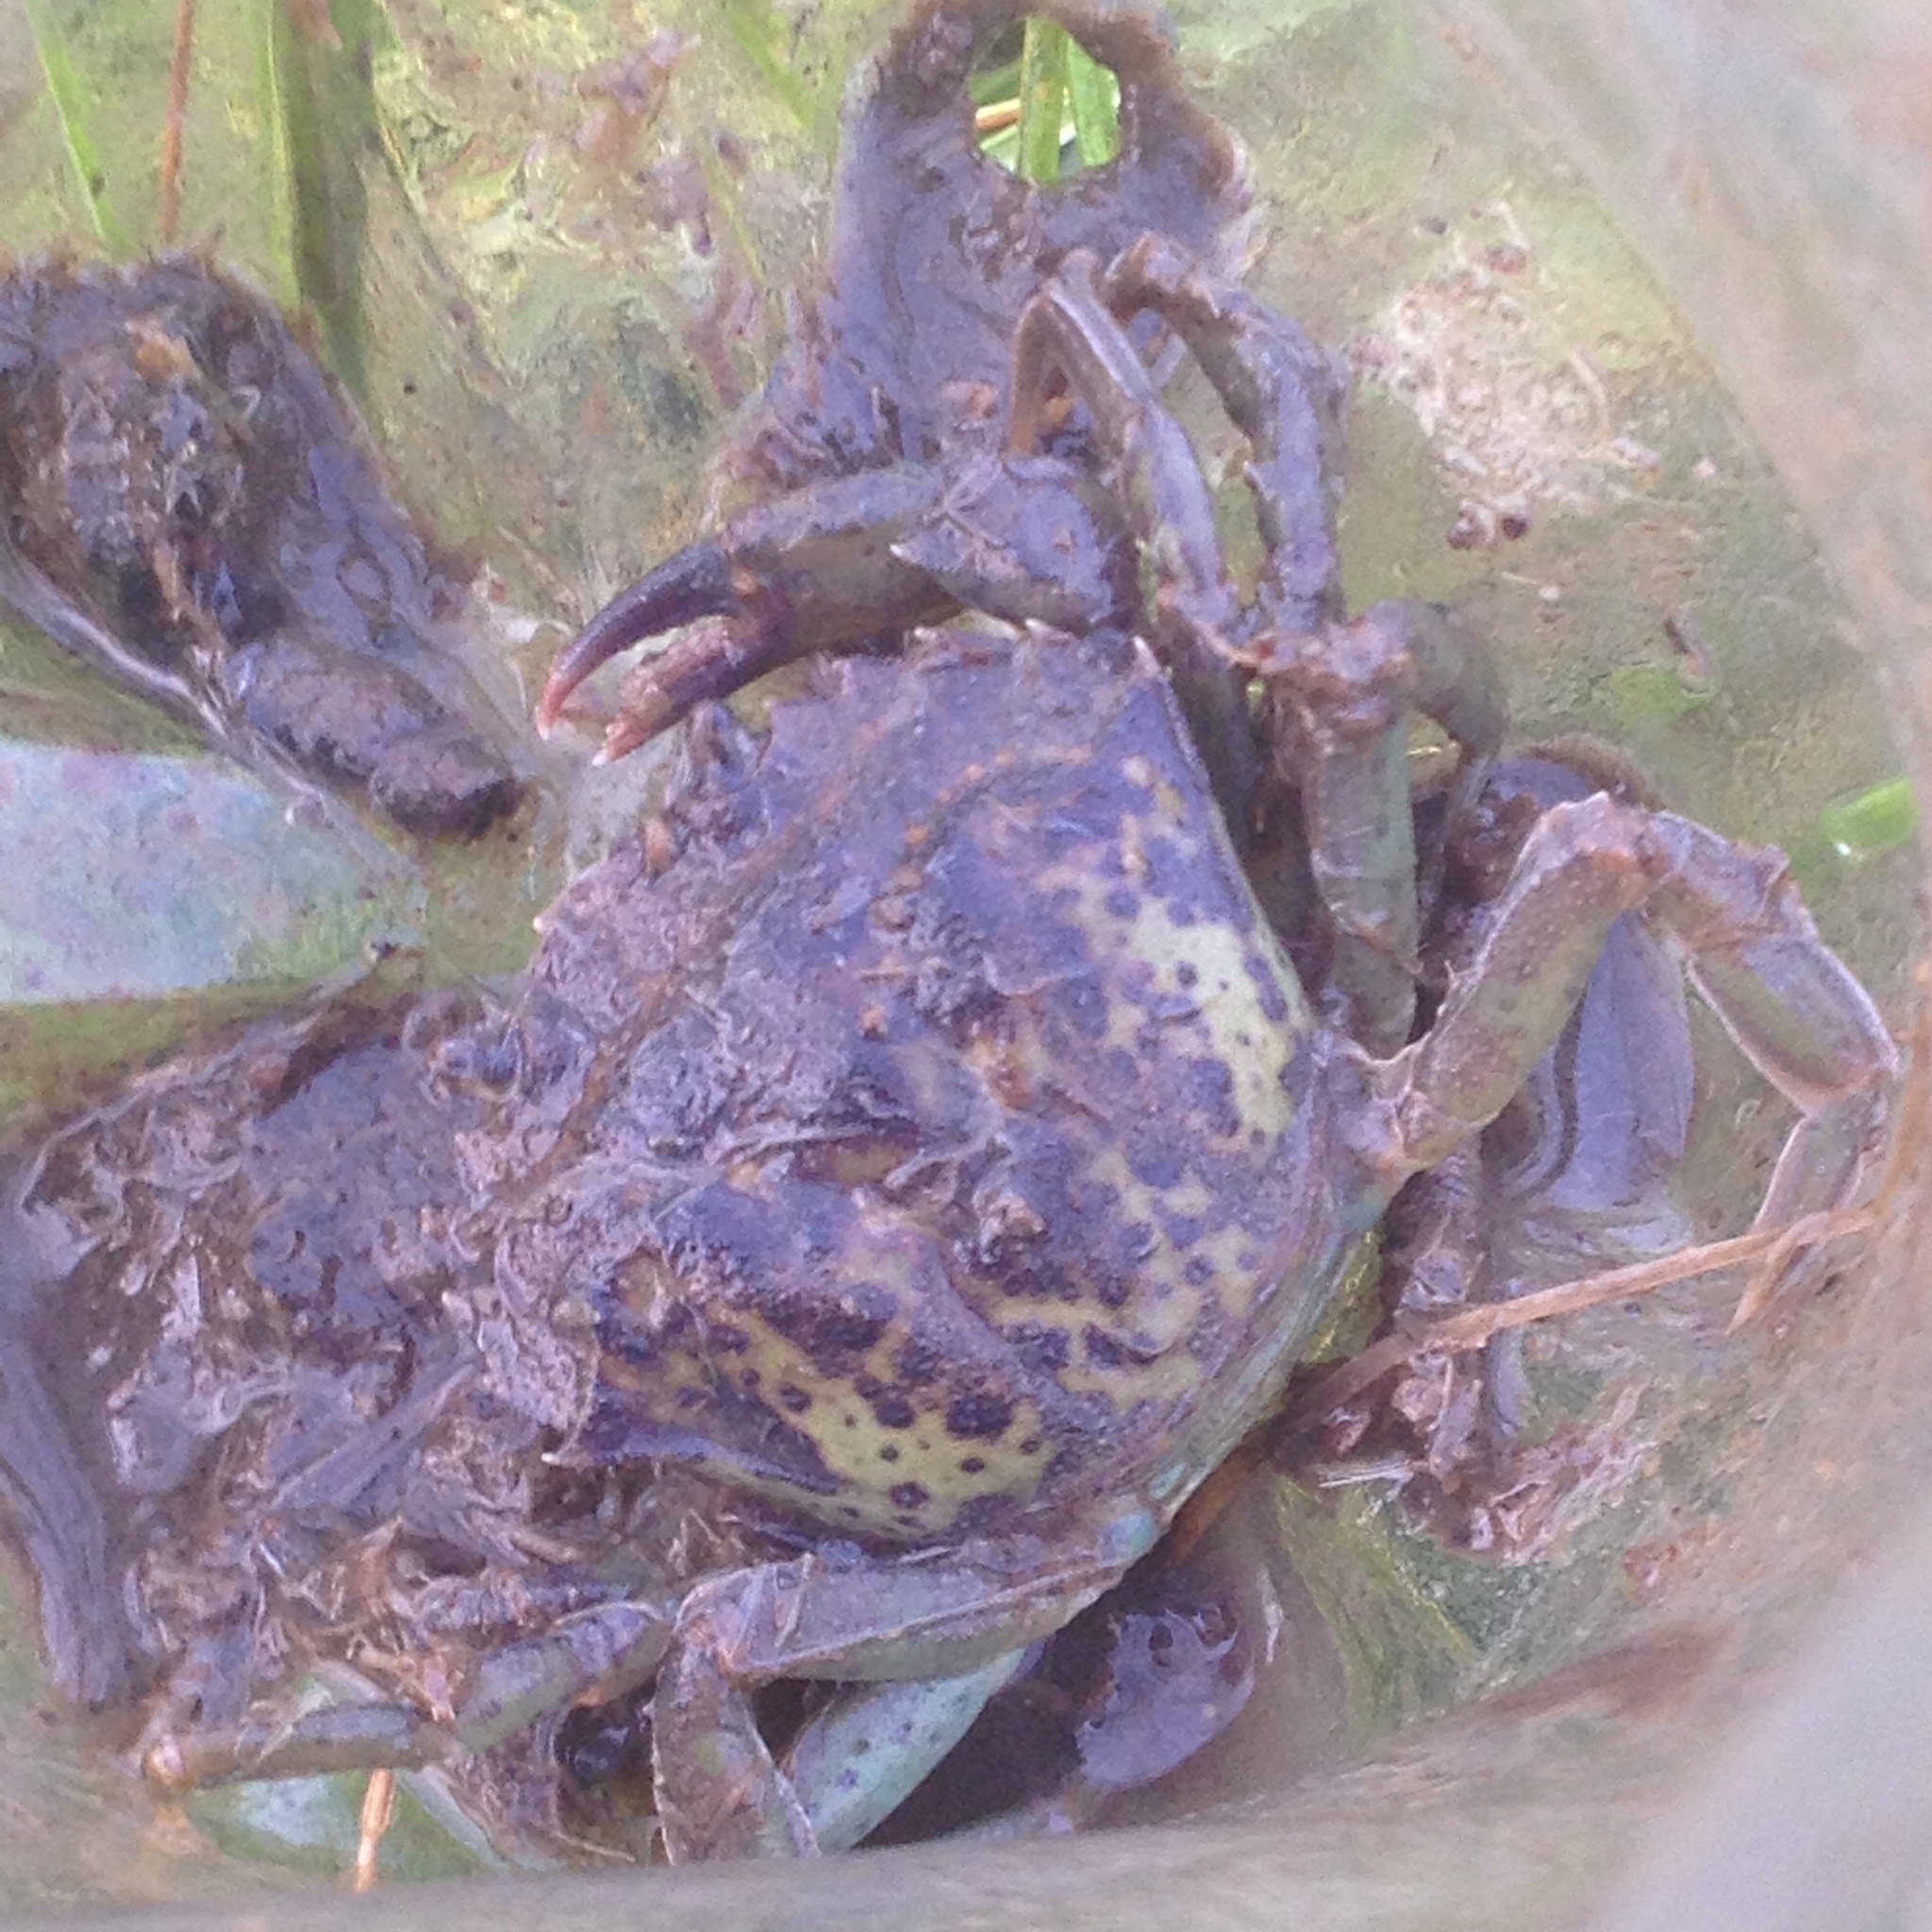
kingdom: Animalia
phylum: Arthropoda
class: Malacostraca
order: Decapoda
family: Carcinidae
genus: Carcinus
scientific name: Carcinus maenas
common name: European green crab
